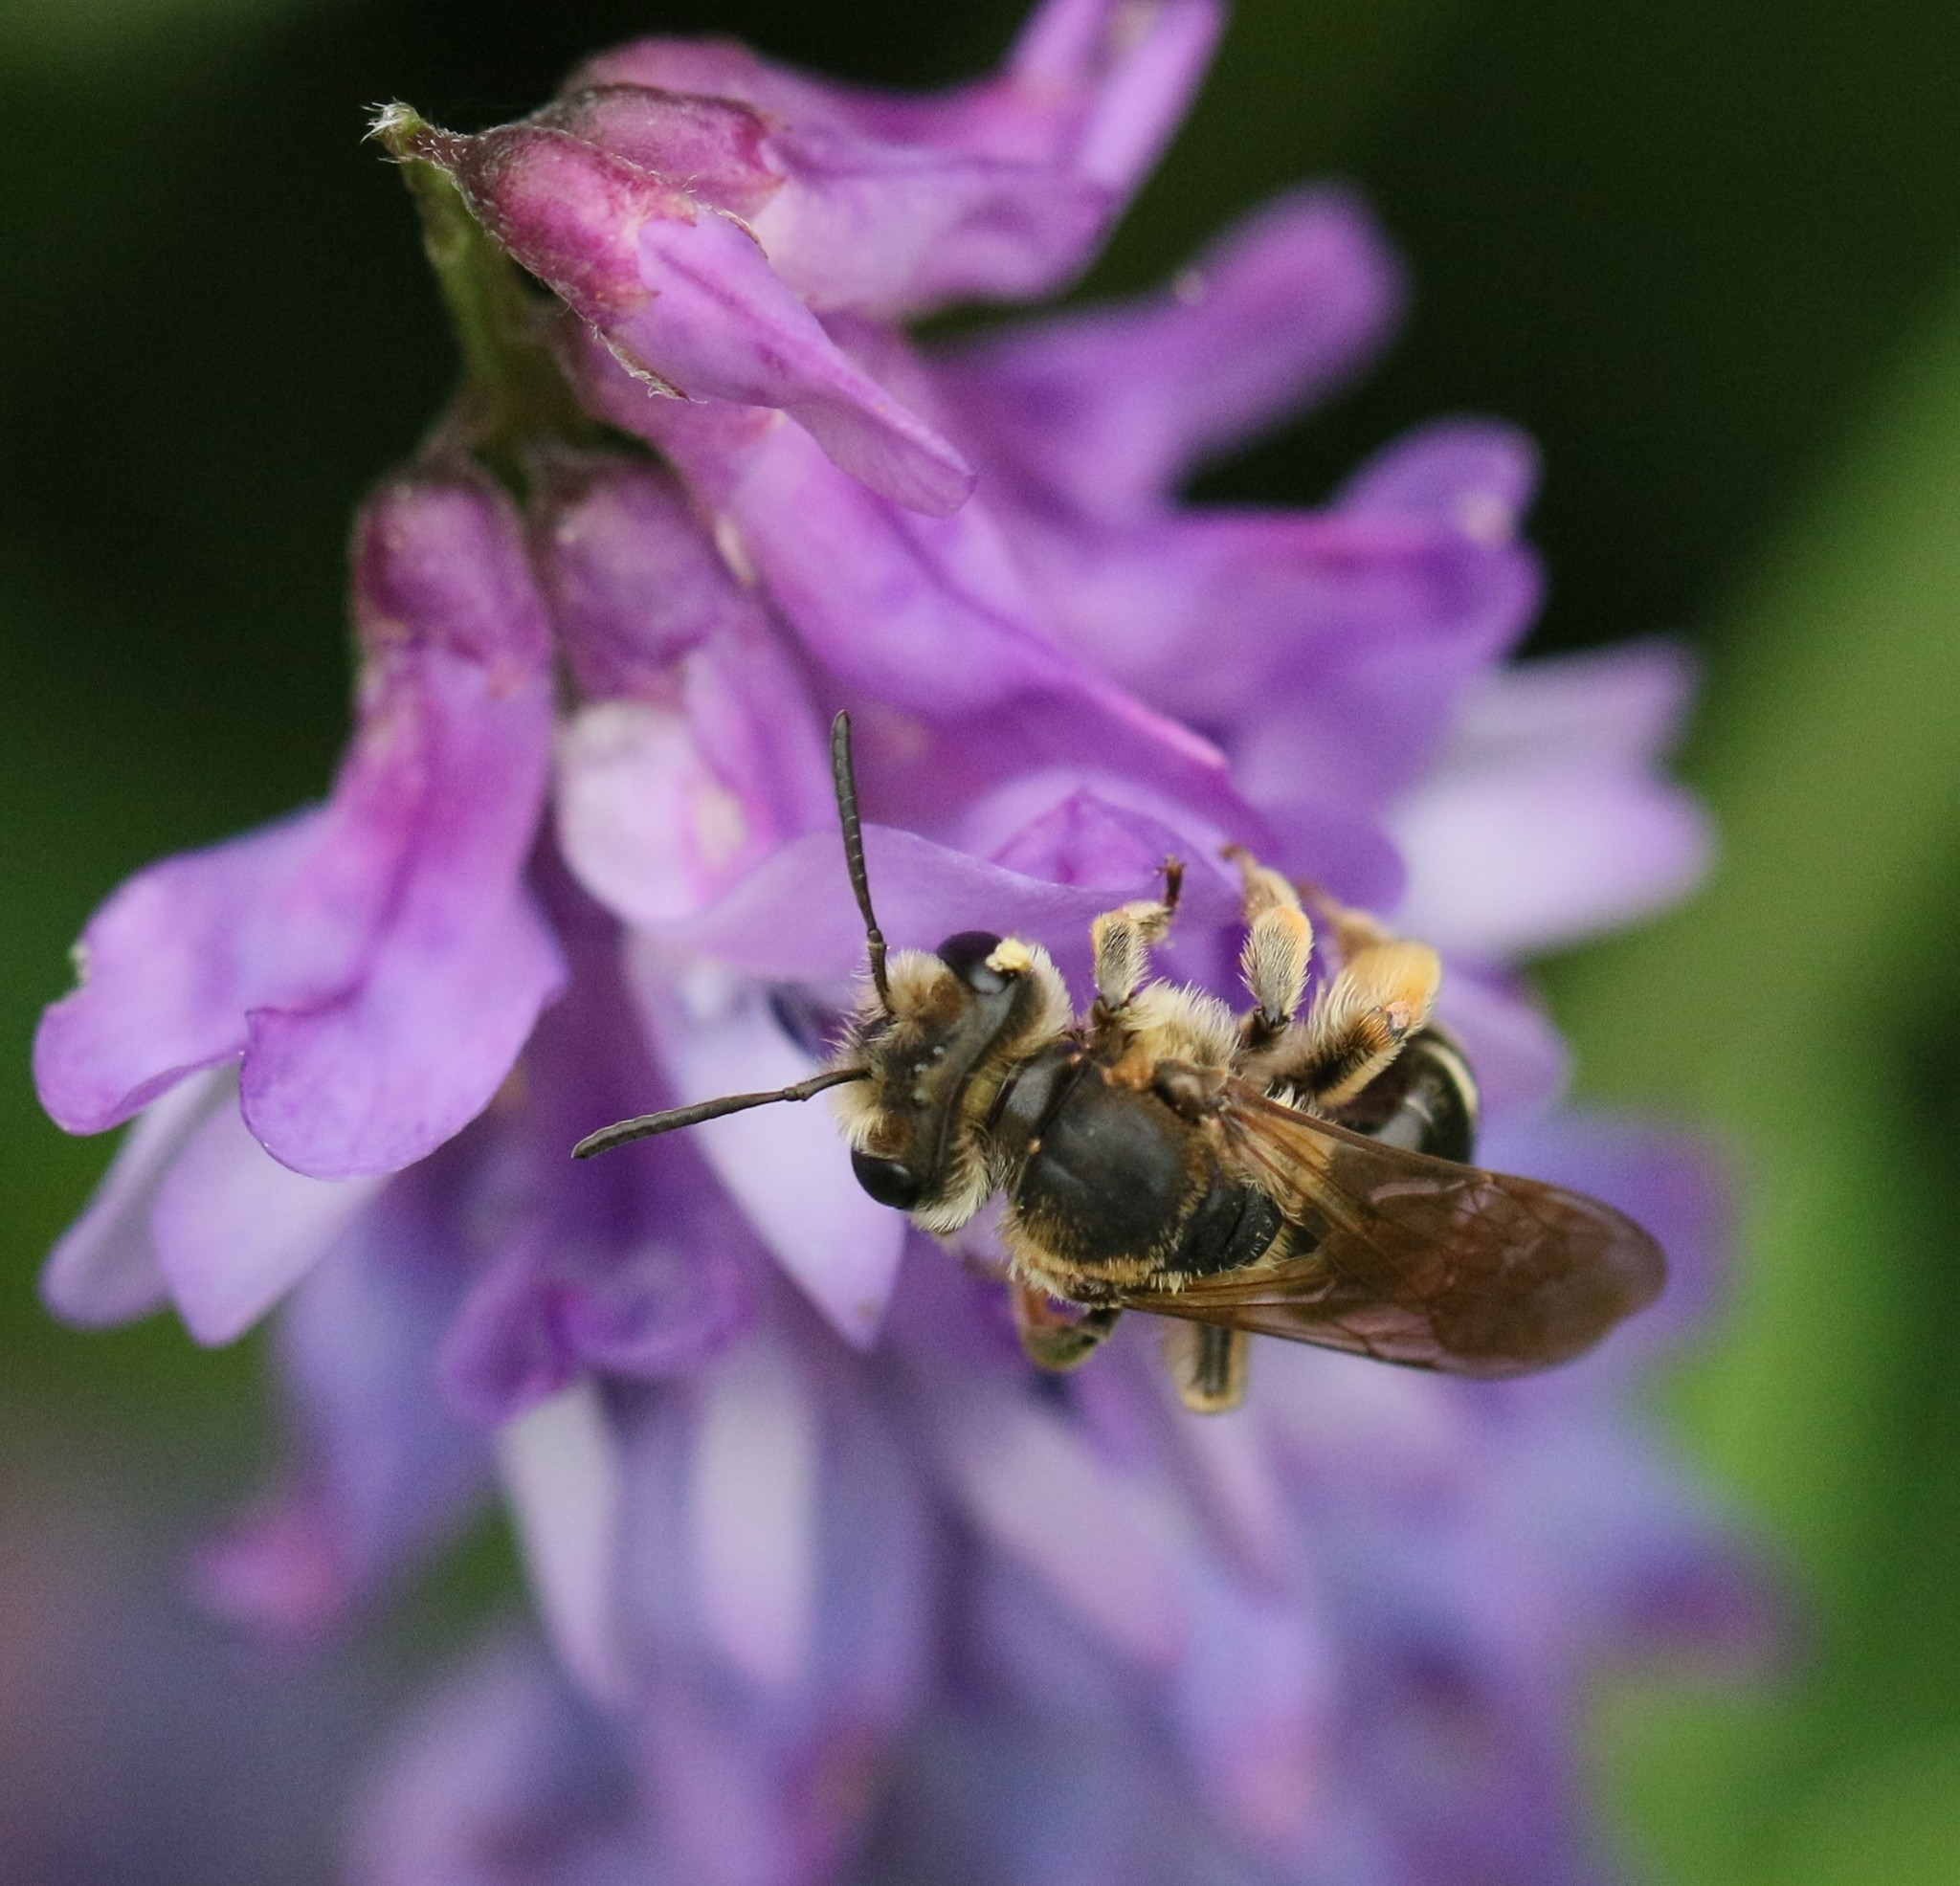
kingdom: Animalia
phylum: Arthropoda
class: Insecta
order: Hymenoptera
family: Andrenidae
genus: Andrena
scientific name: Andrena wilkella
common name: Wilke's mining bee
